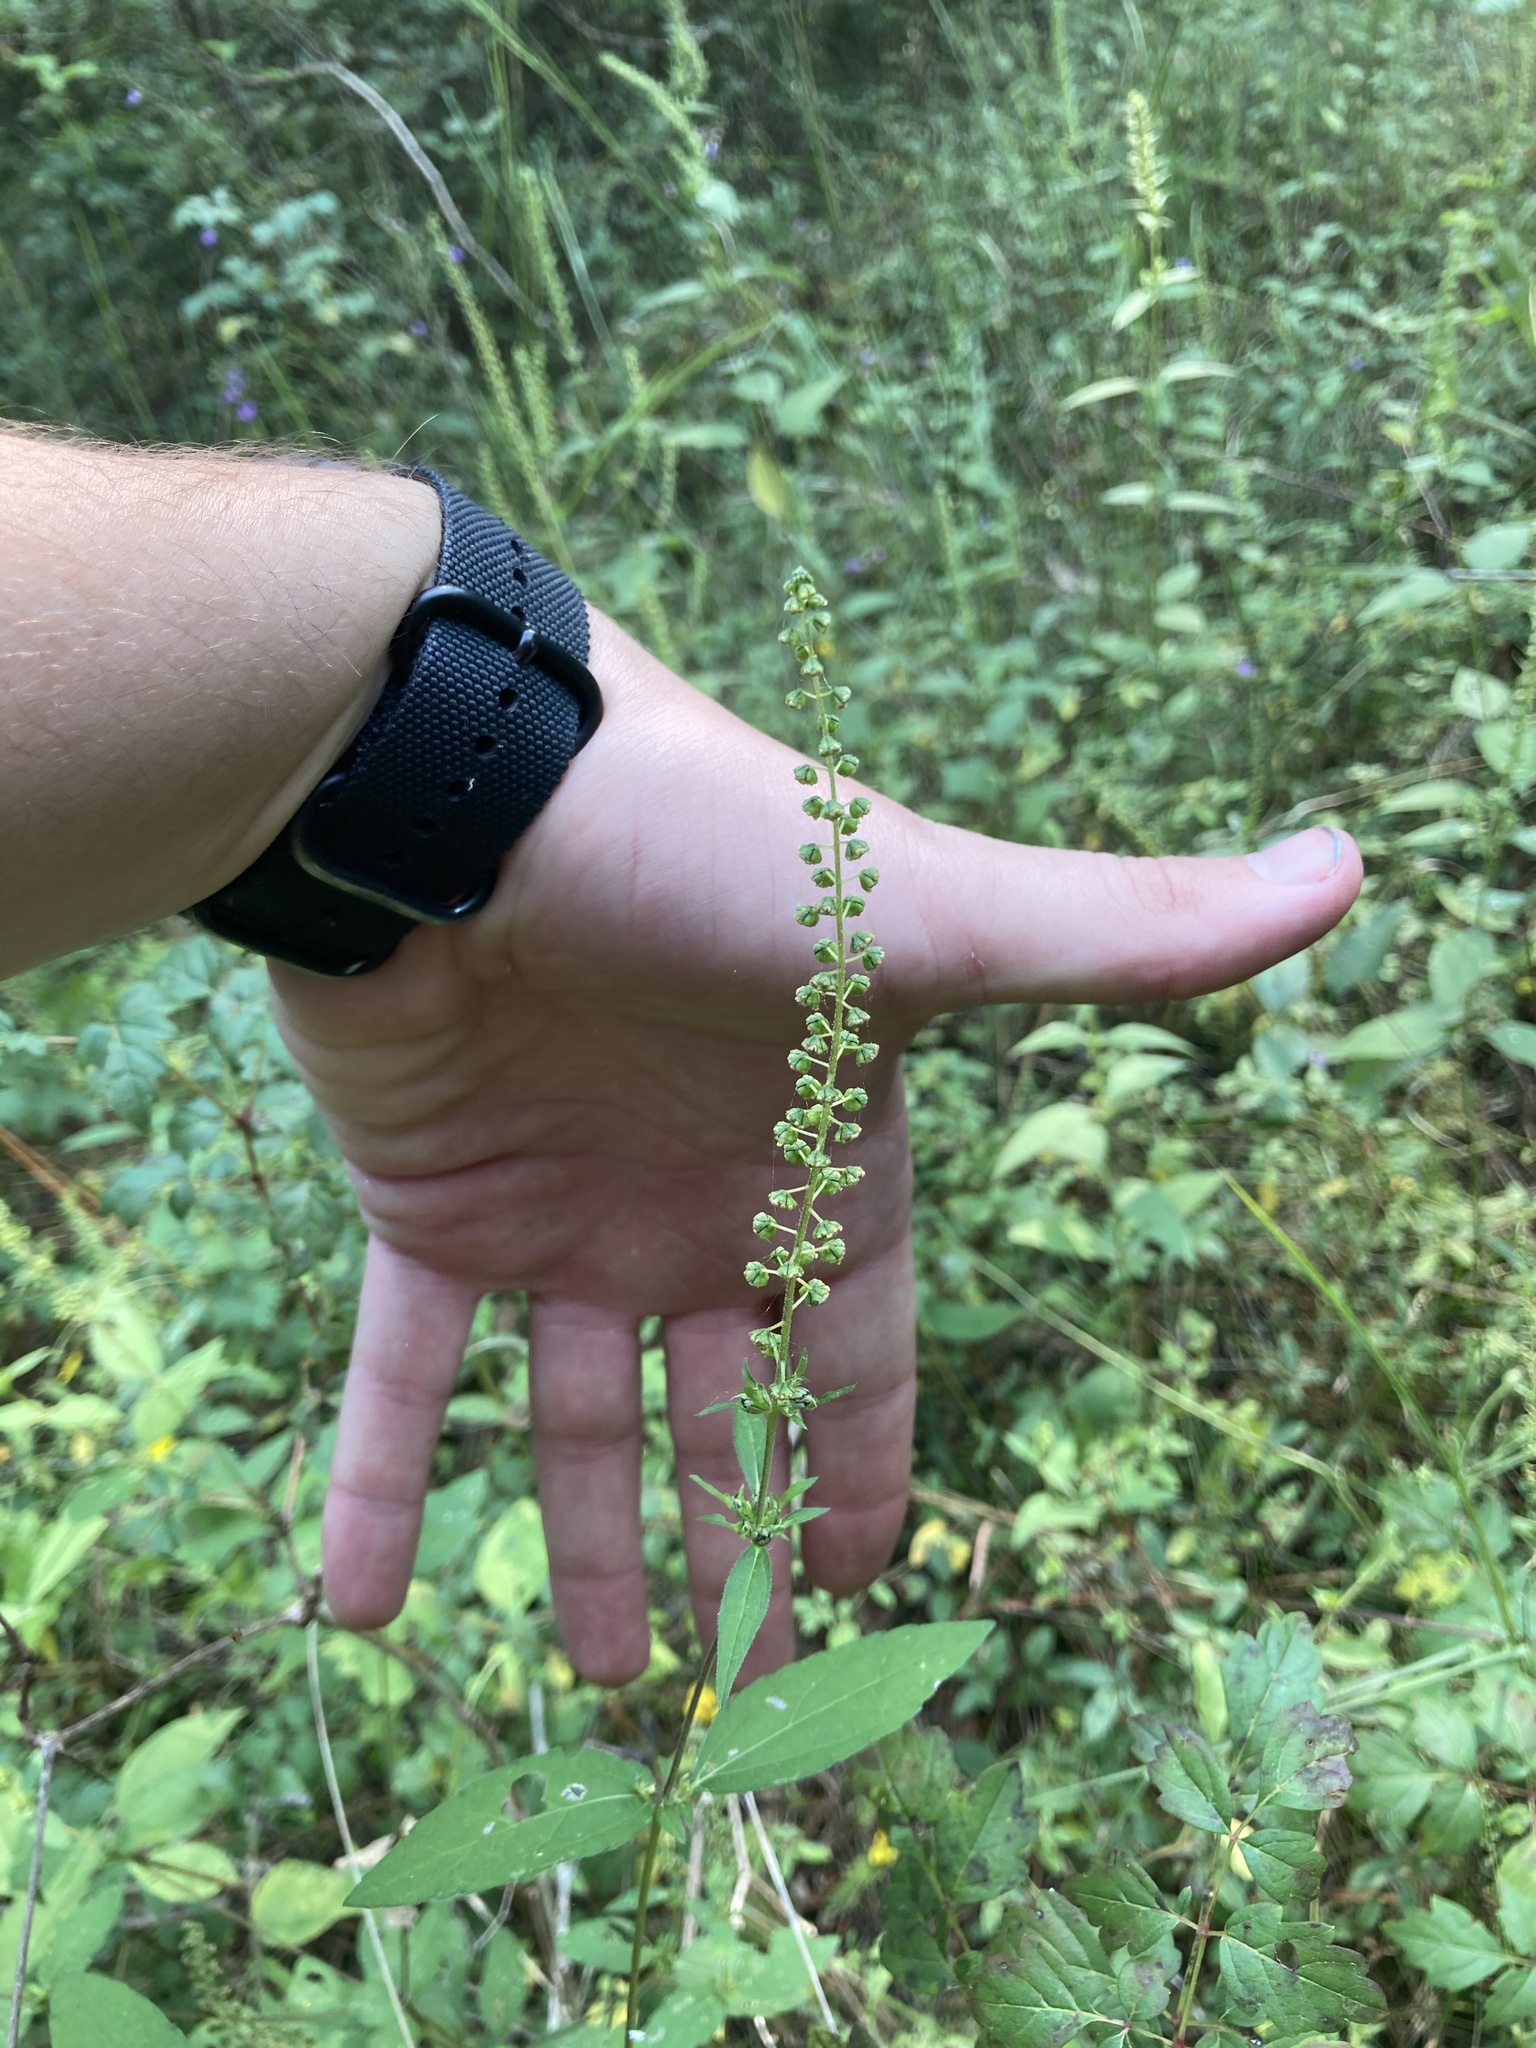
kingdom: Plantae
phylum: Tracheophyta
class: Magnoliopsida
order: Asterales
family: Asteraceae
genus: Ambrosia
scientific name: Ambrosia trifida
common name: Giant ragweed
